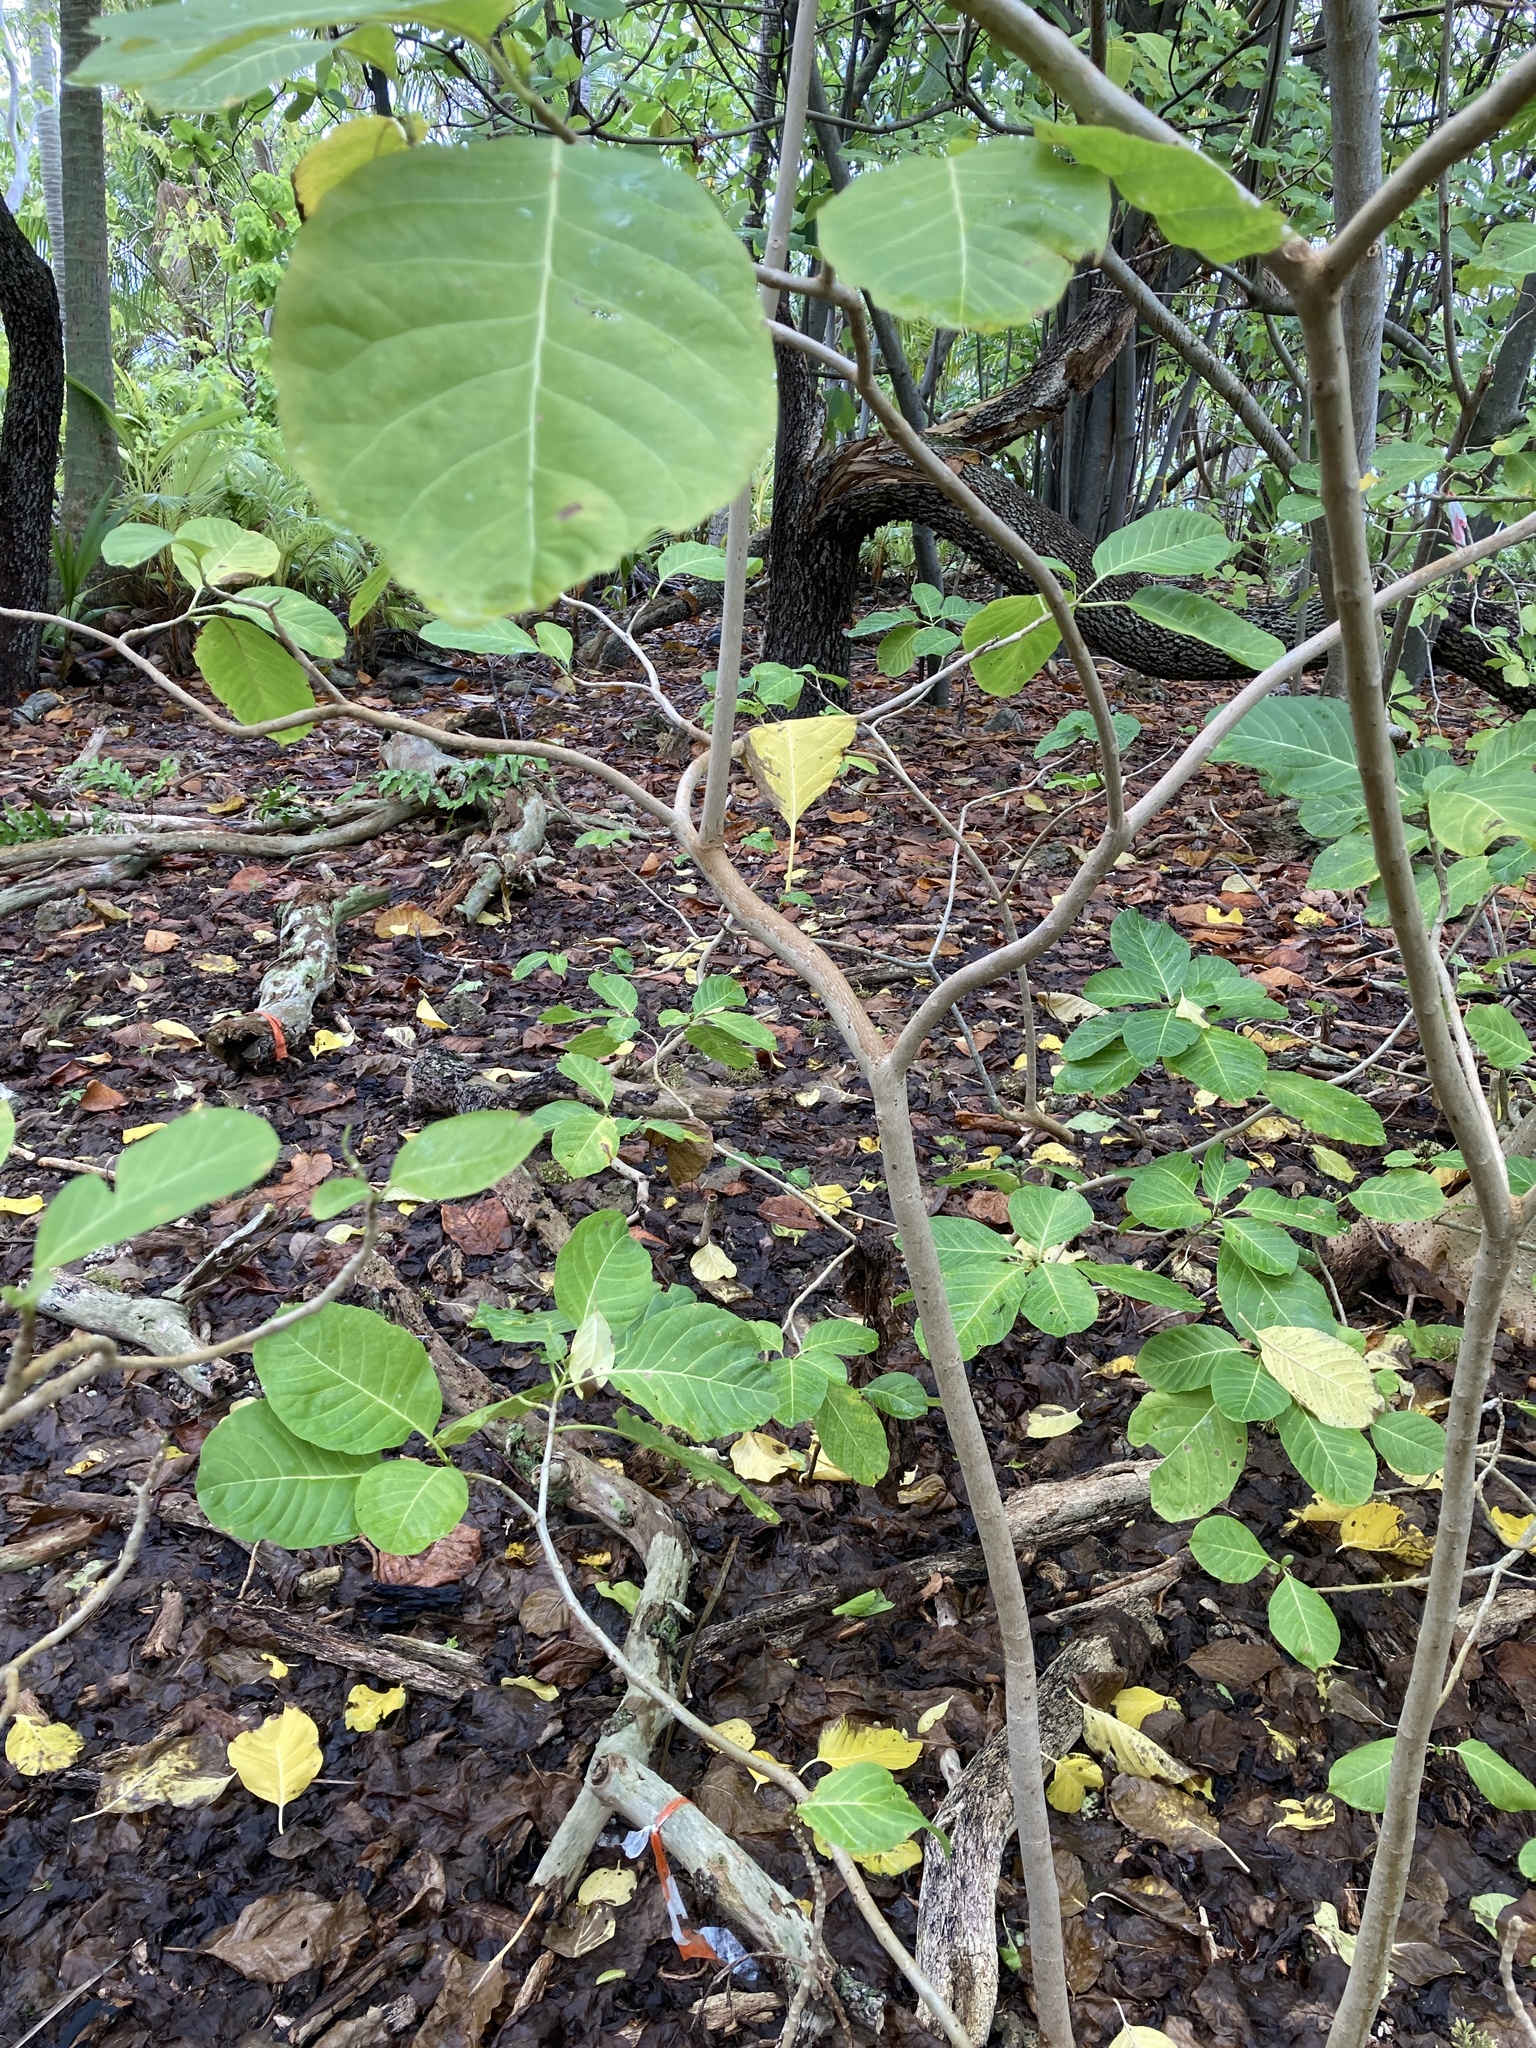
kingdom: Plantae
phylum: Tracheophyta
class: Magnoliopsida
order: Gentianales
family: Rubiaceae
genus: Guettarda
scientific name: Guettarda speciosa
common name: Sea randa
